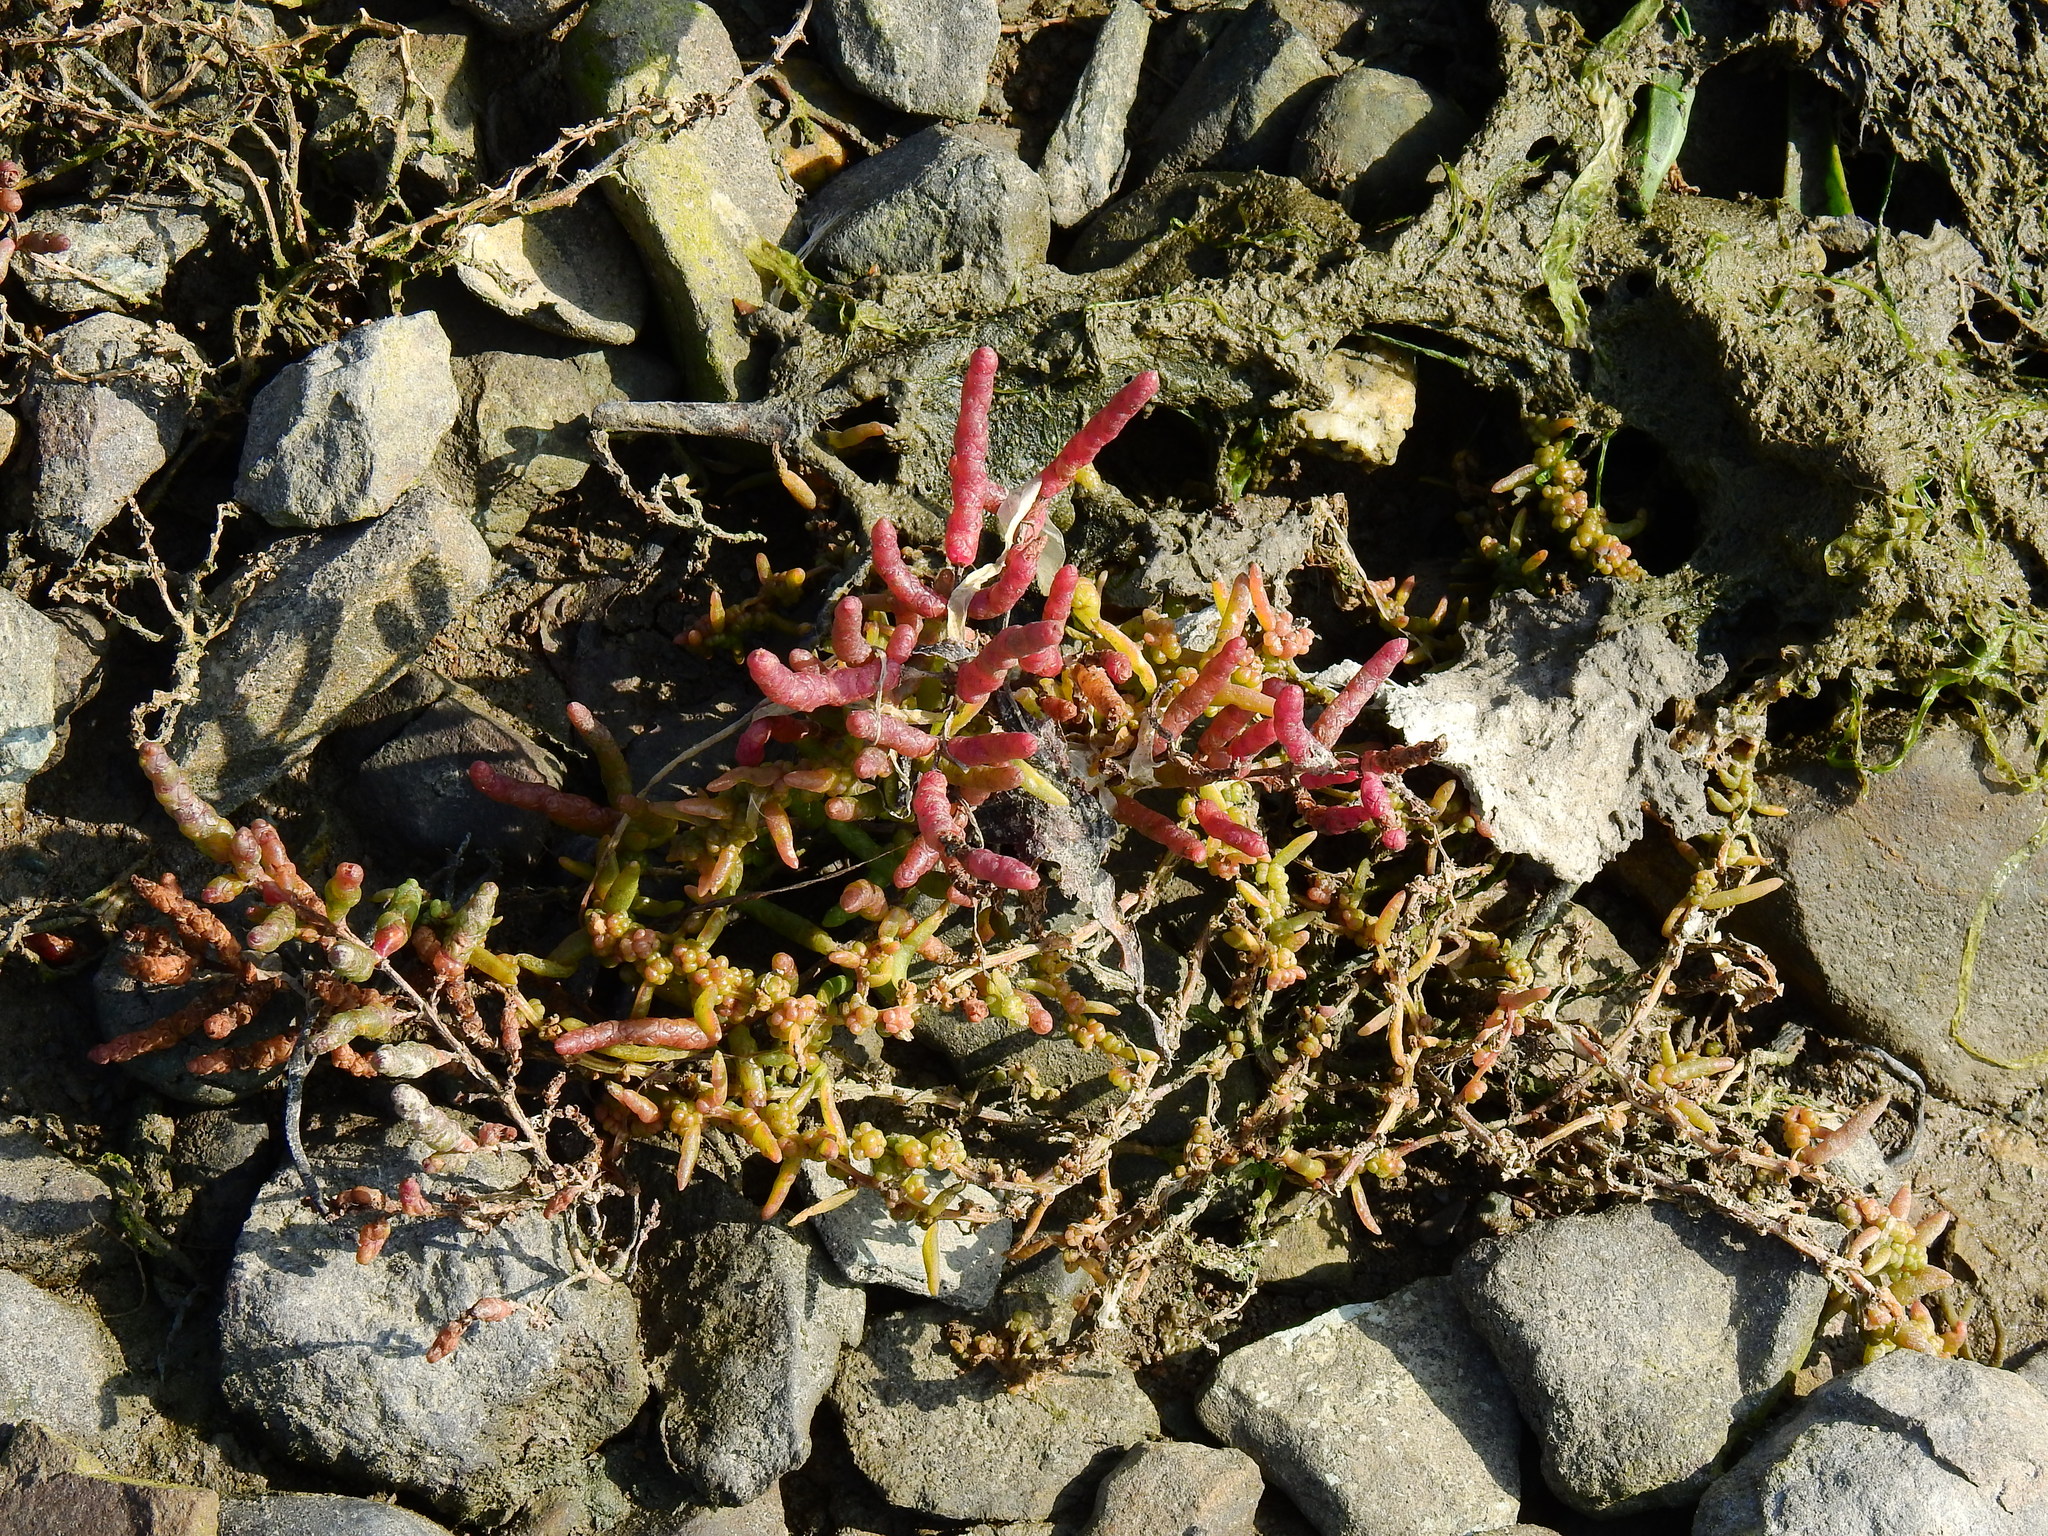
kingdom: Plantae
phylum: Tracheophyta
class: Magnoliopsida
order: Caryophyllales
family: Amaranthaceae
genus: Salicornia
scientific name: Salicornia europaea
